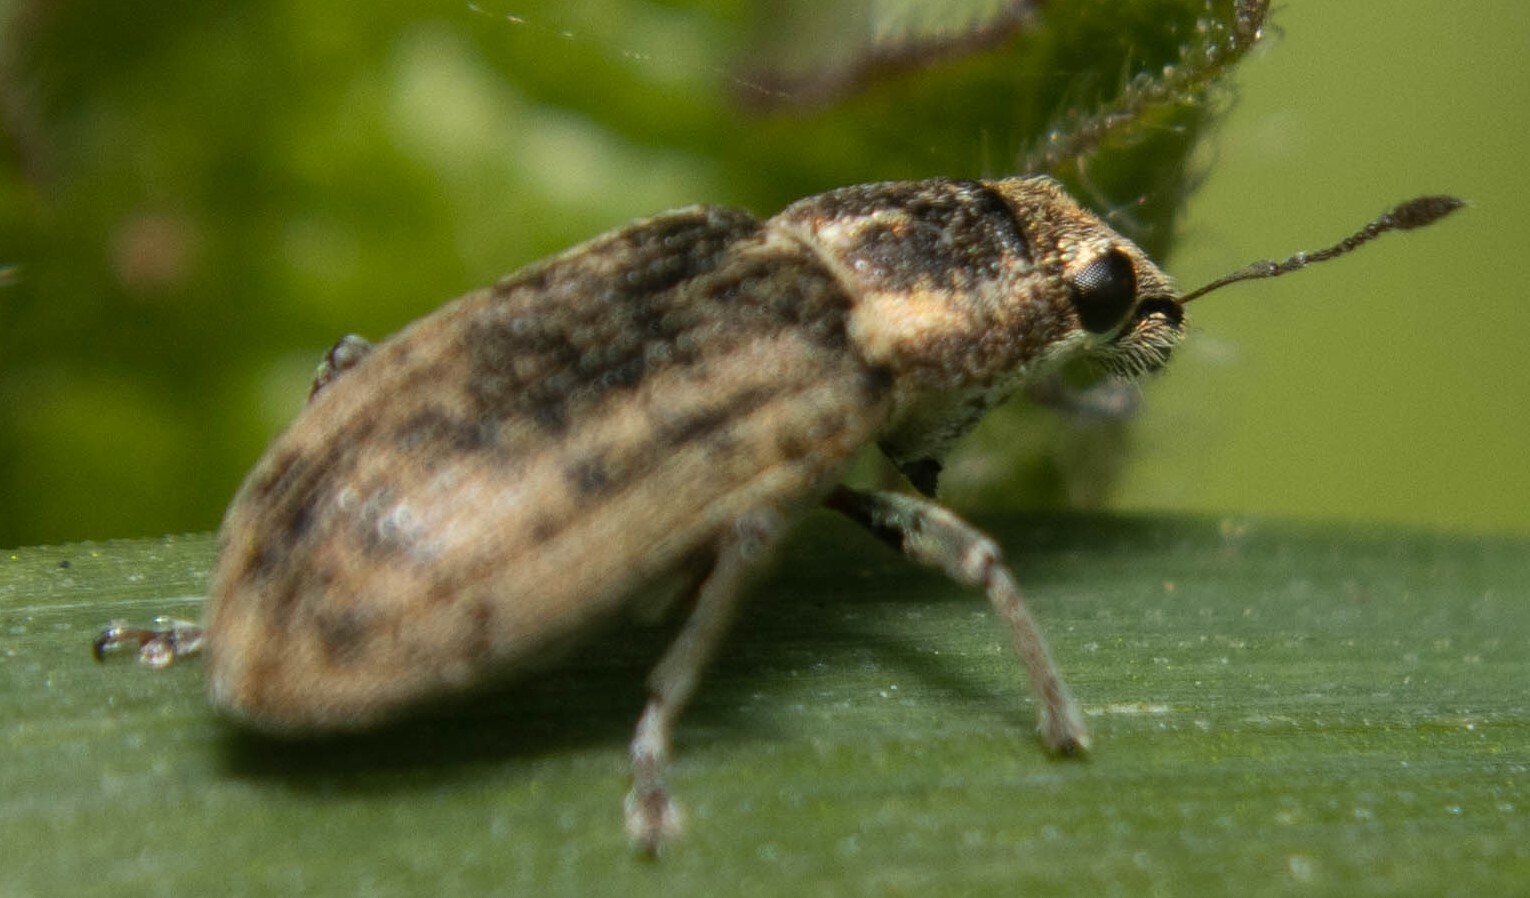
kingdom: Animalia
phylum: Arthropoda
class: Insecta
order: Coleoptera
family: Curculionidae
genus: Sitona
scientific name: Sitona lineatus
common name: Weevil
